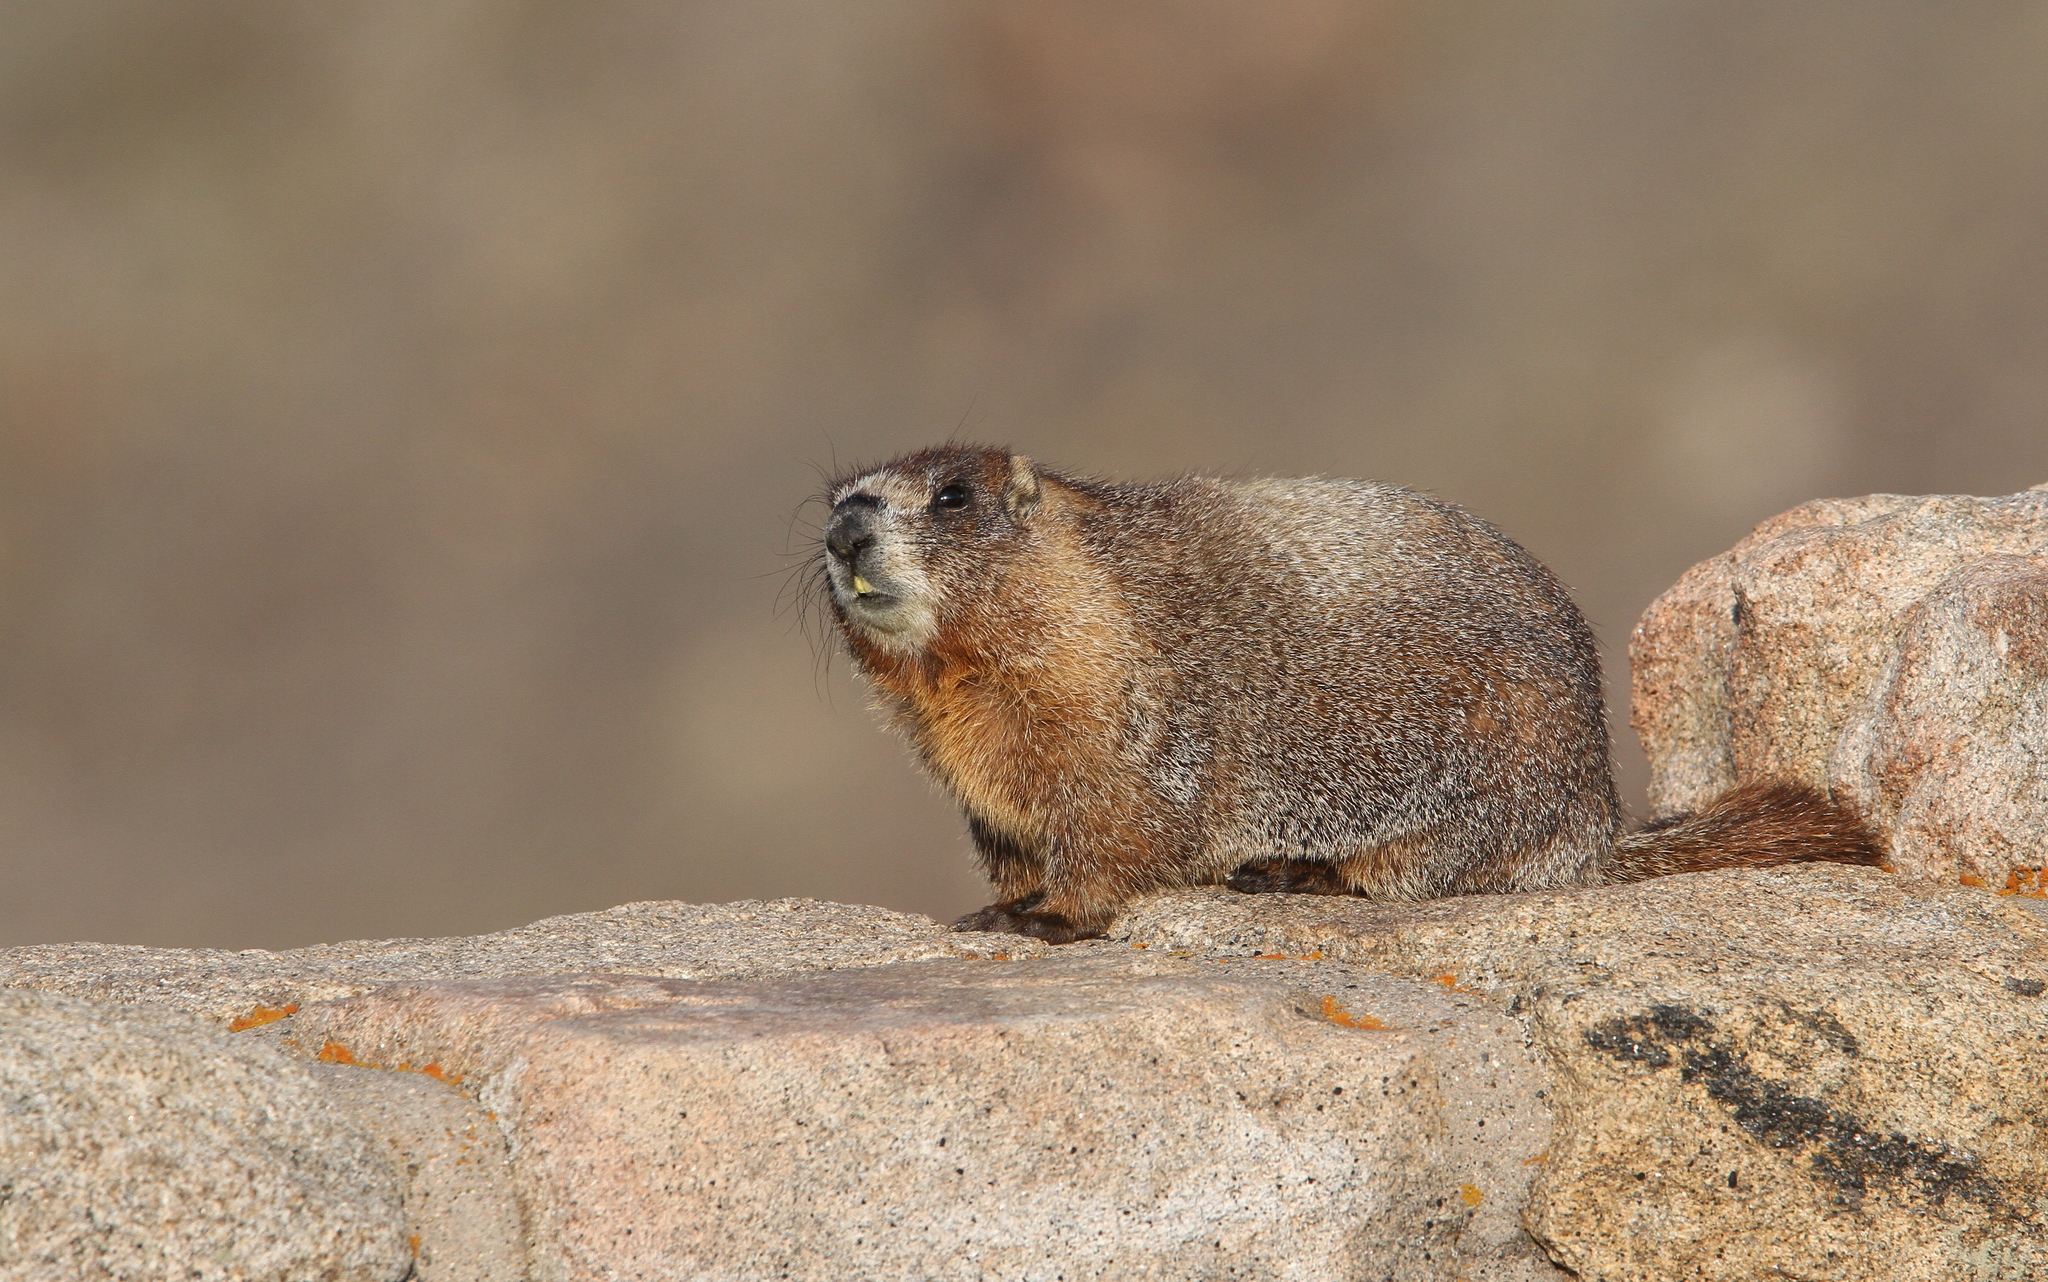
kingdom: Animalia
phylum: Chordata
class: Mammalia
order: Rodentia
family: Sciuridae
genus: Marmota
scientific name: Marmota flaviventris
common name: Yellow-bellied marmot
